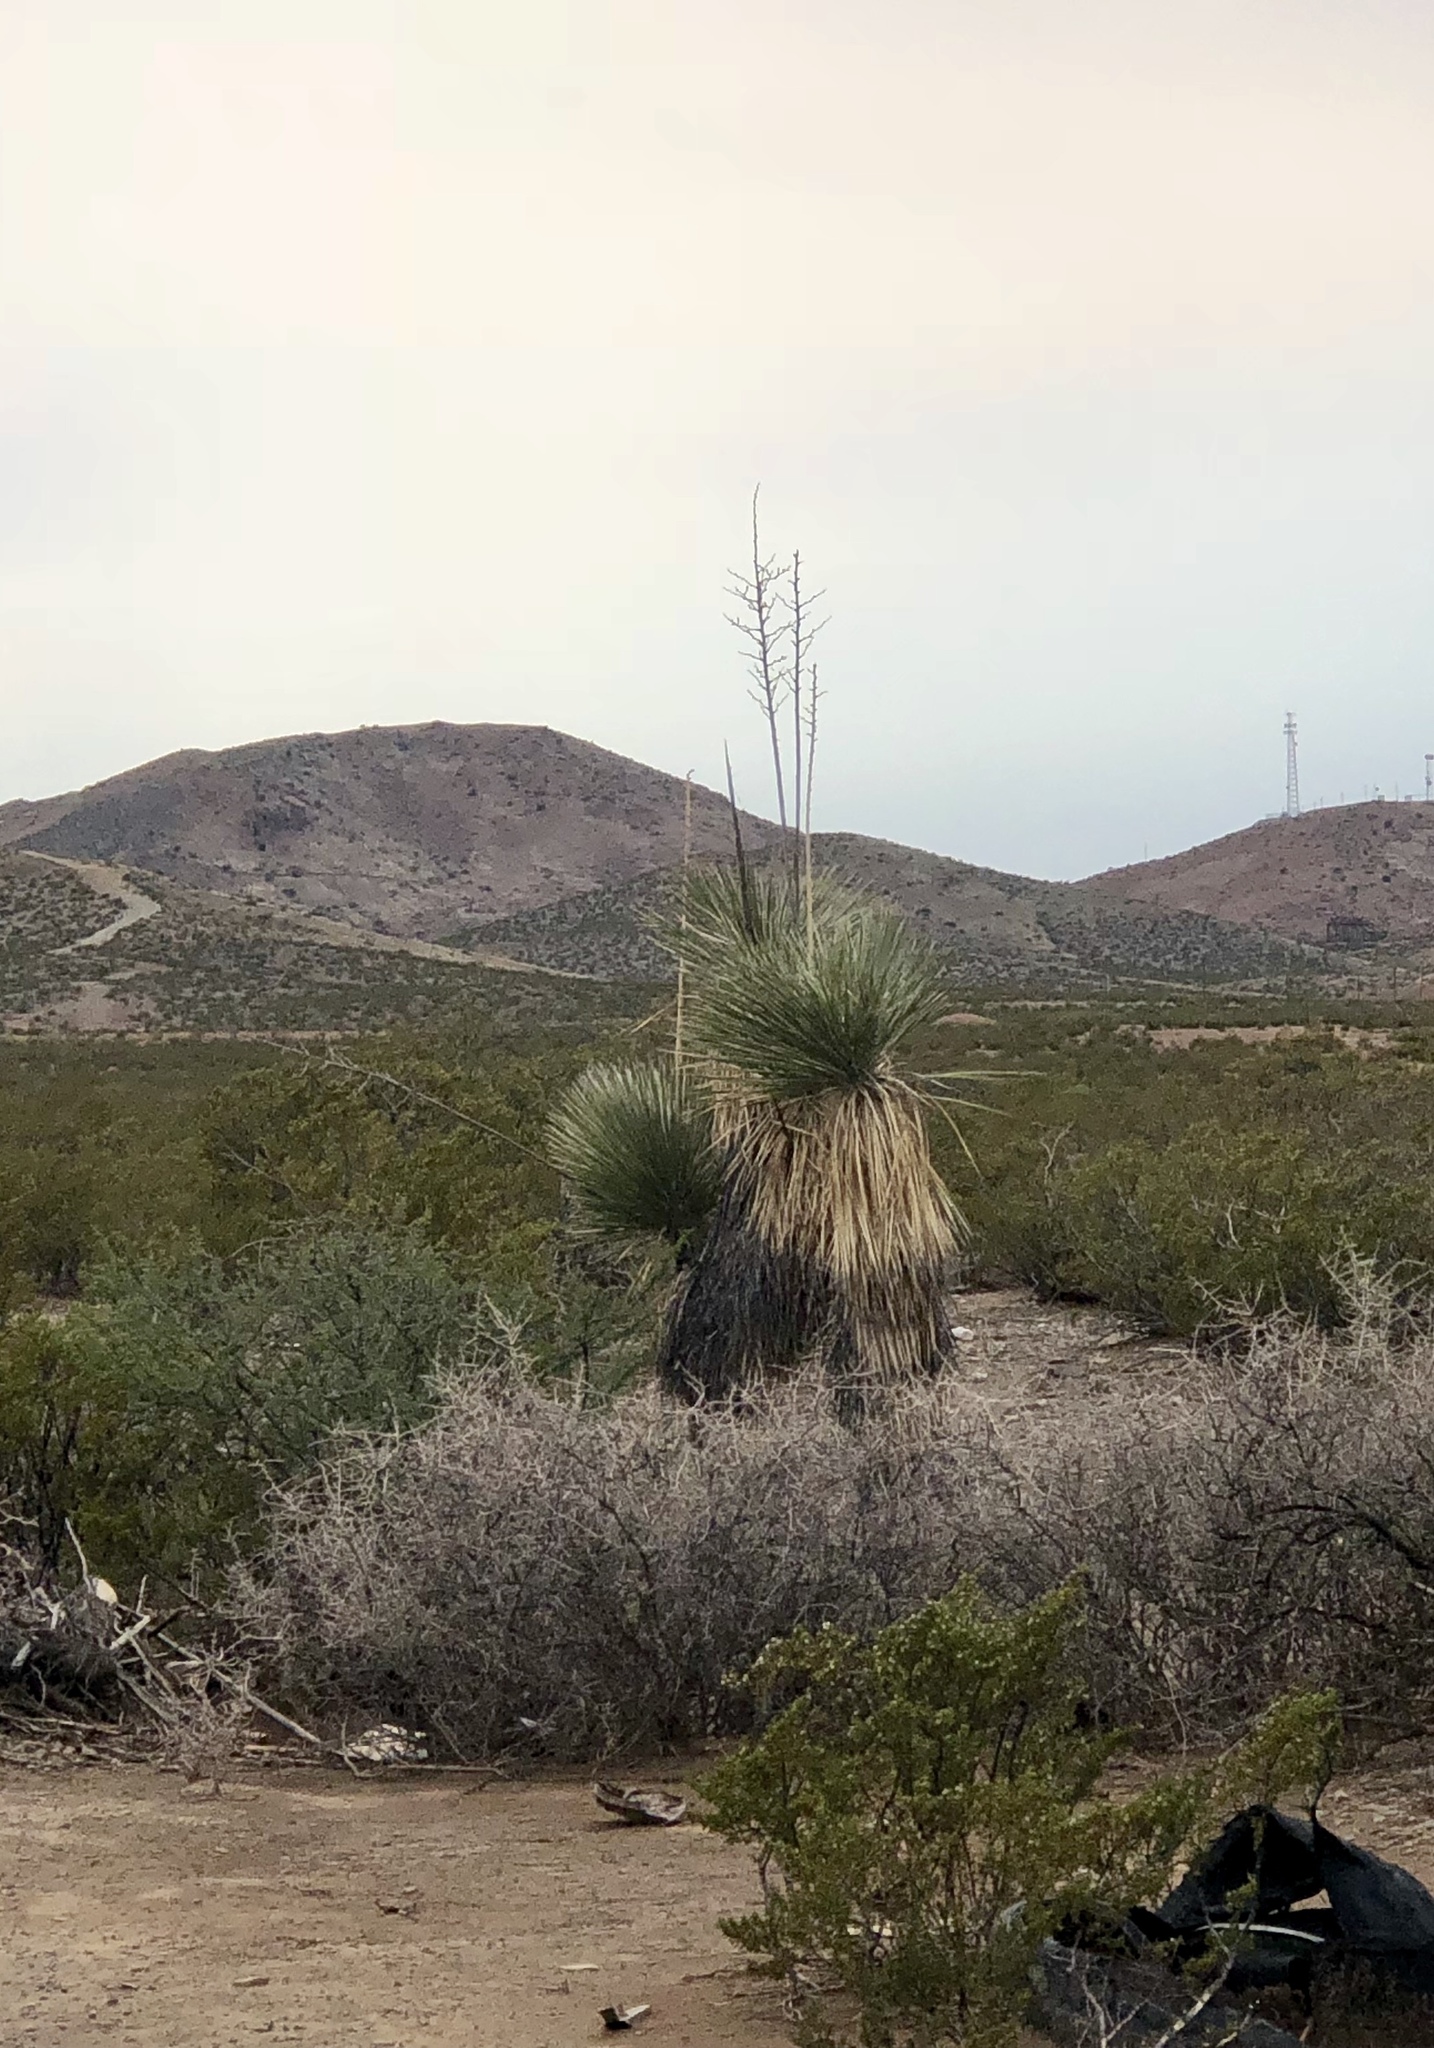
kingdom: Plantae
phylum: Tracheophyta
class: Liliopsida
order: Asparagales
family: Asparagaceae
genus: Yucca
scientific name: Yucca elata
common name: Palmella
